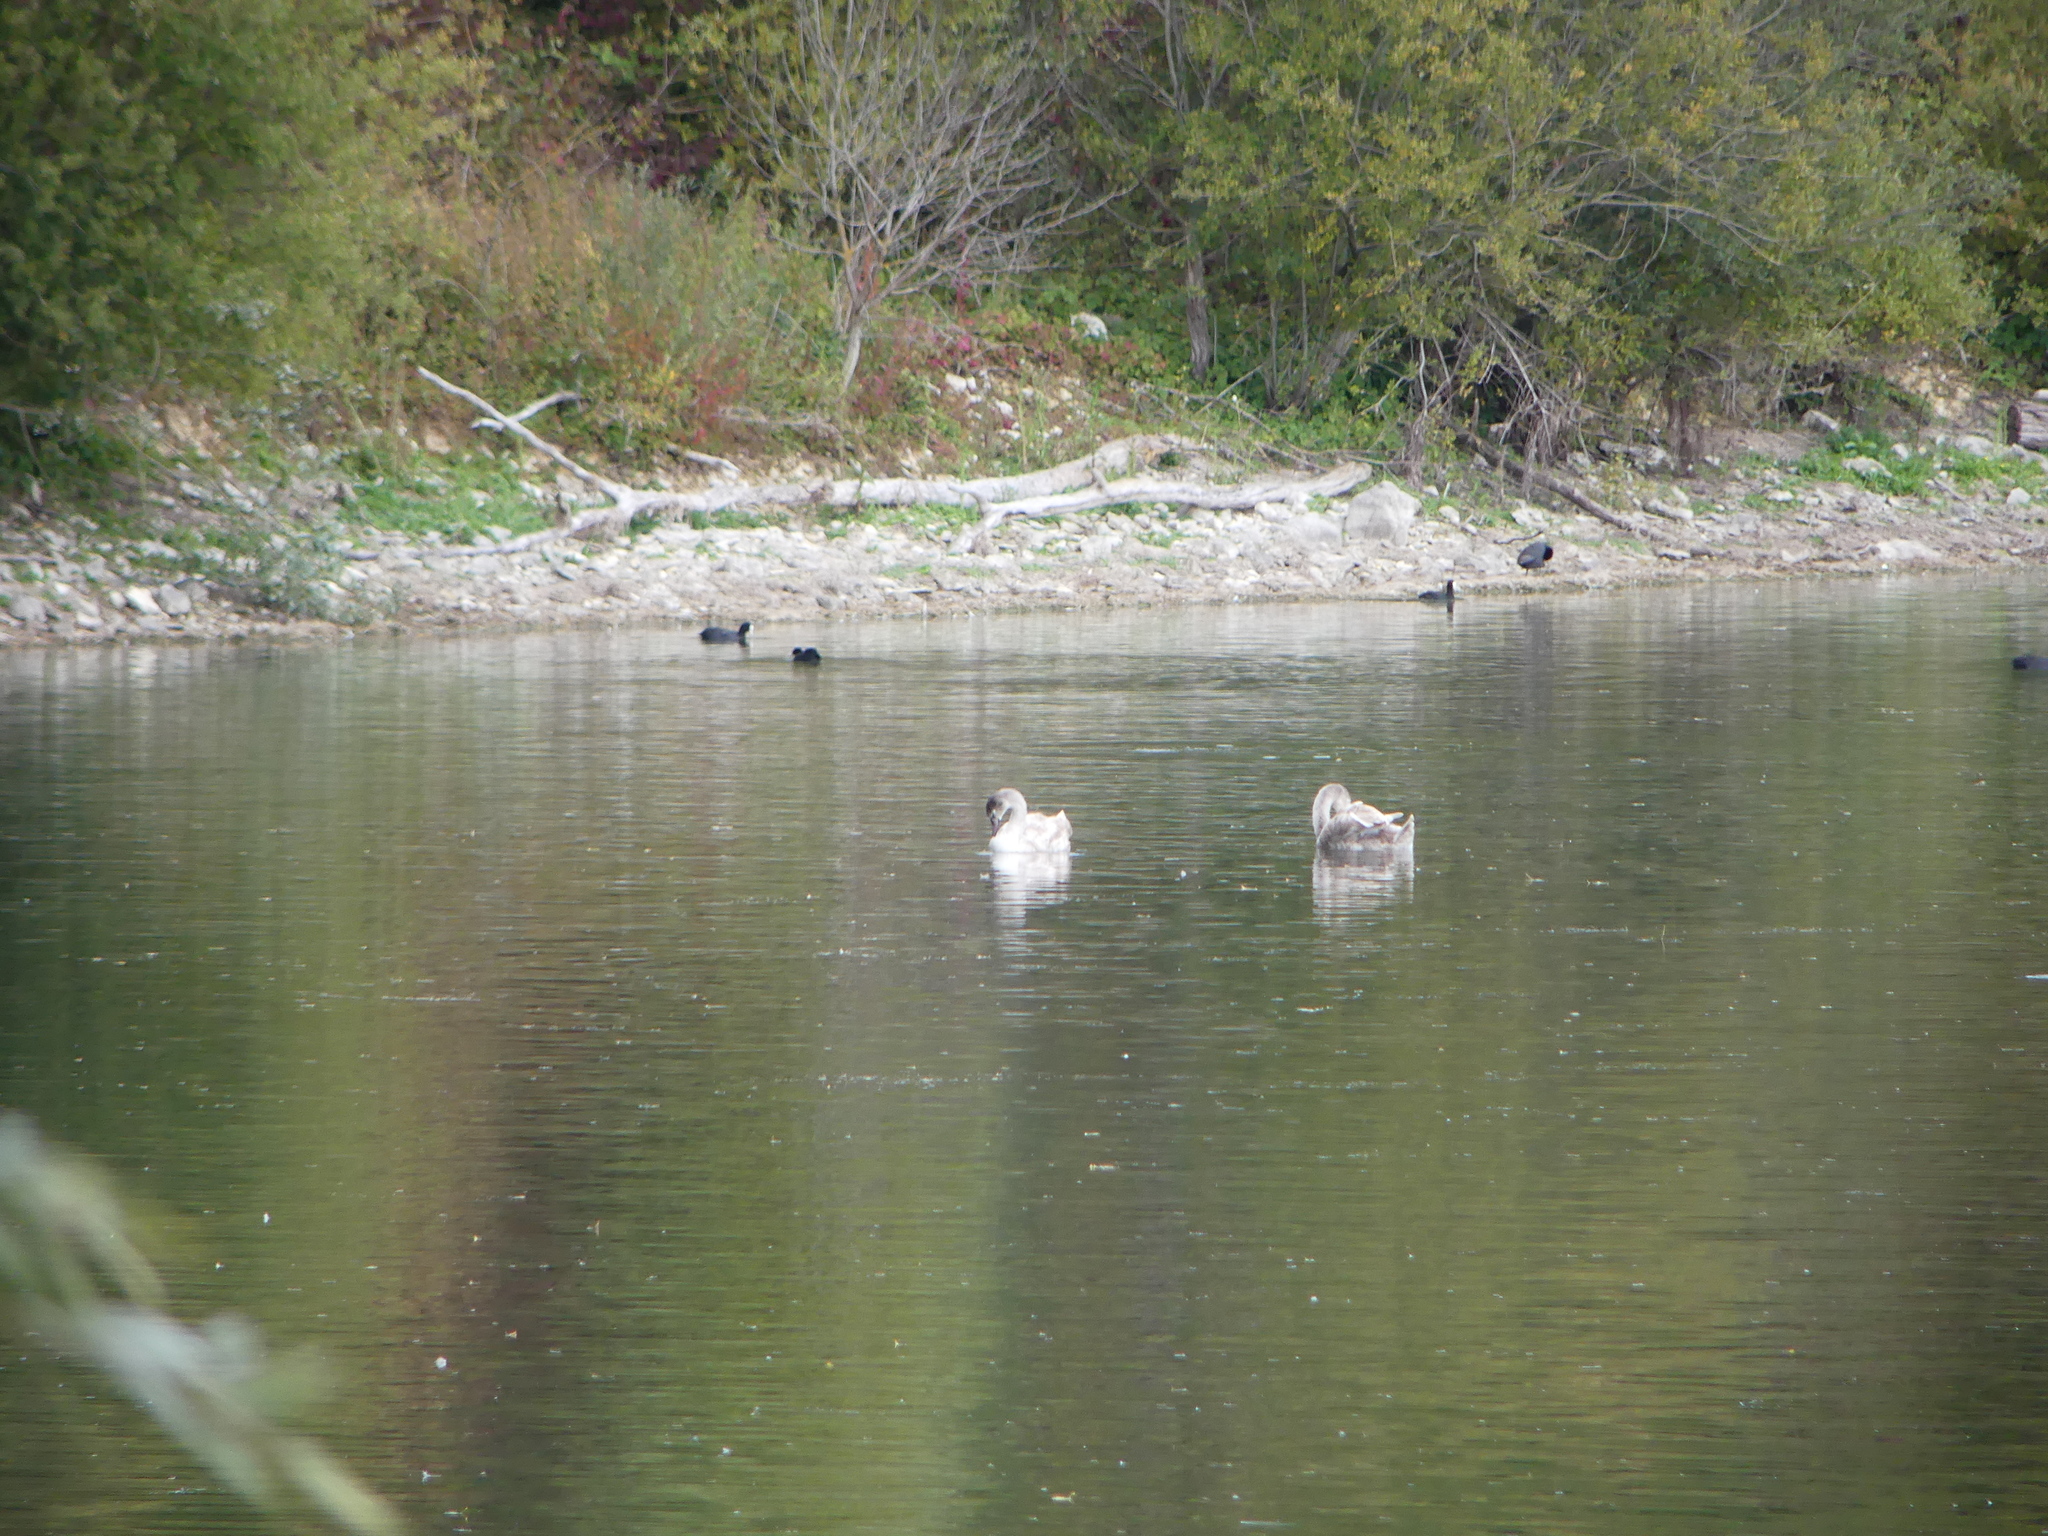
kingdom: Animalia
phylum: Chordata
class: Aves
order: Anseriformes
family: Anatidae
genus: Cygnus
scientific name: Cygnus olor
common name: Mute swan
